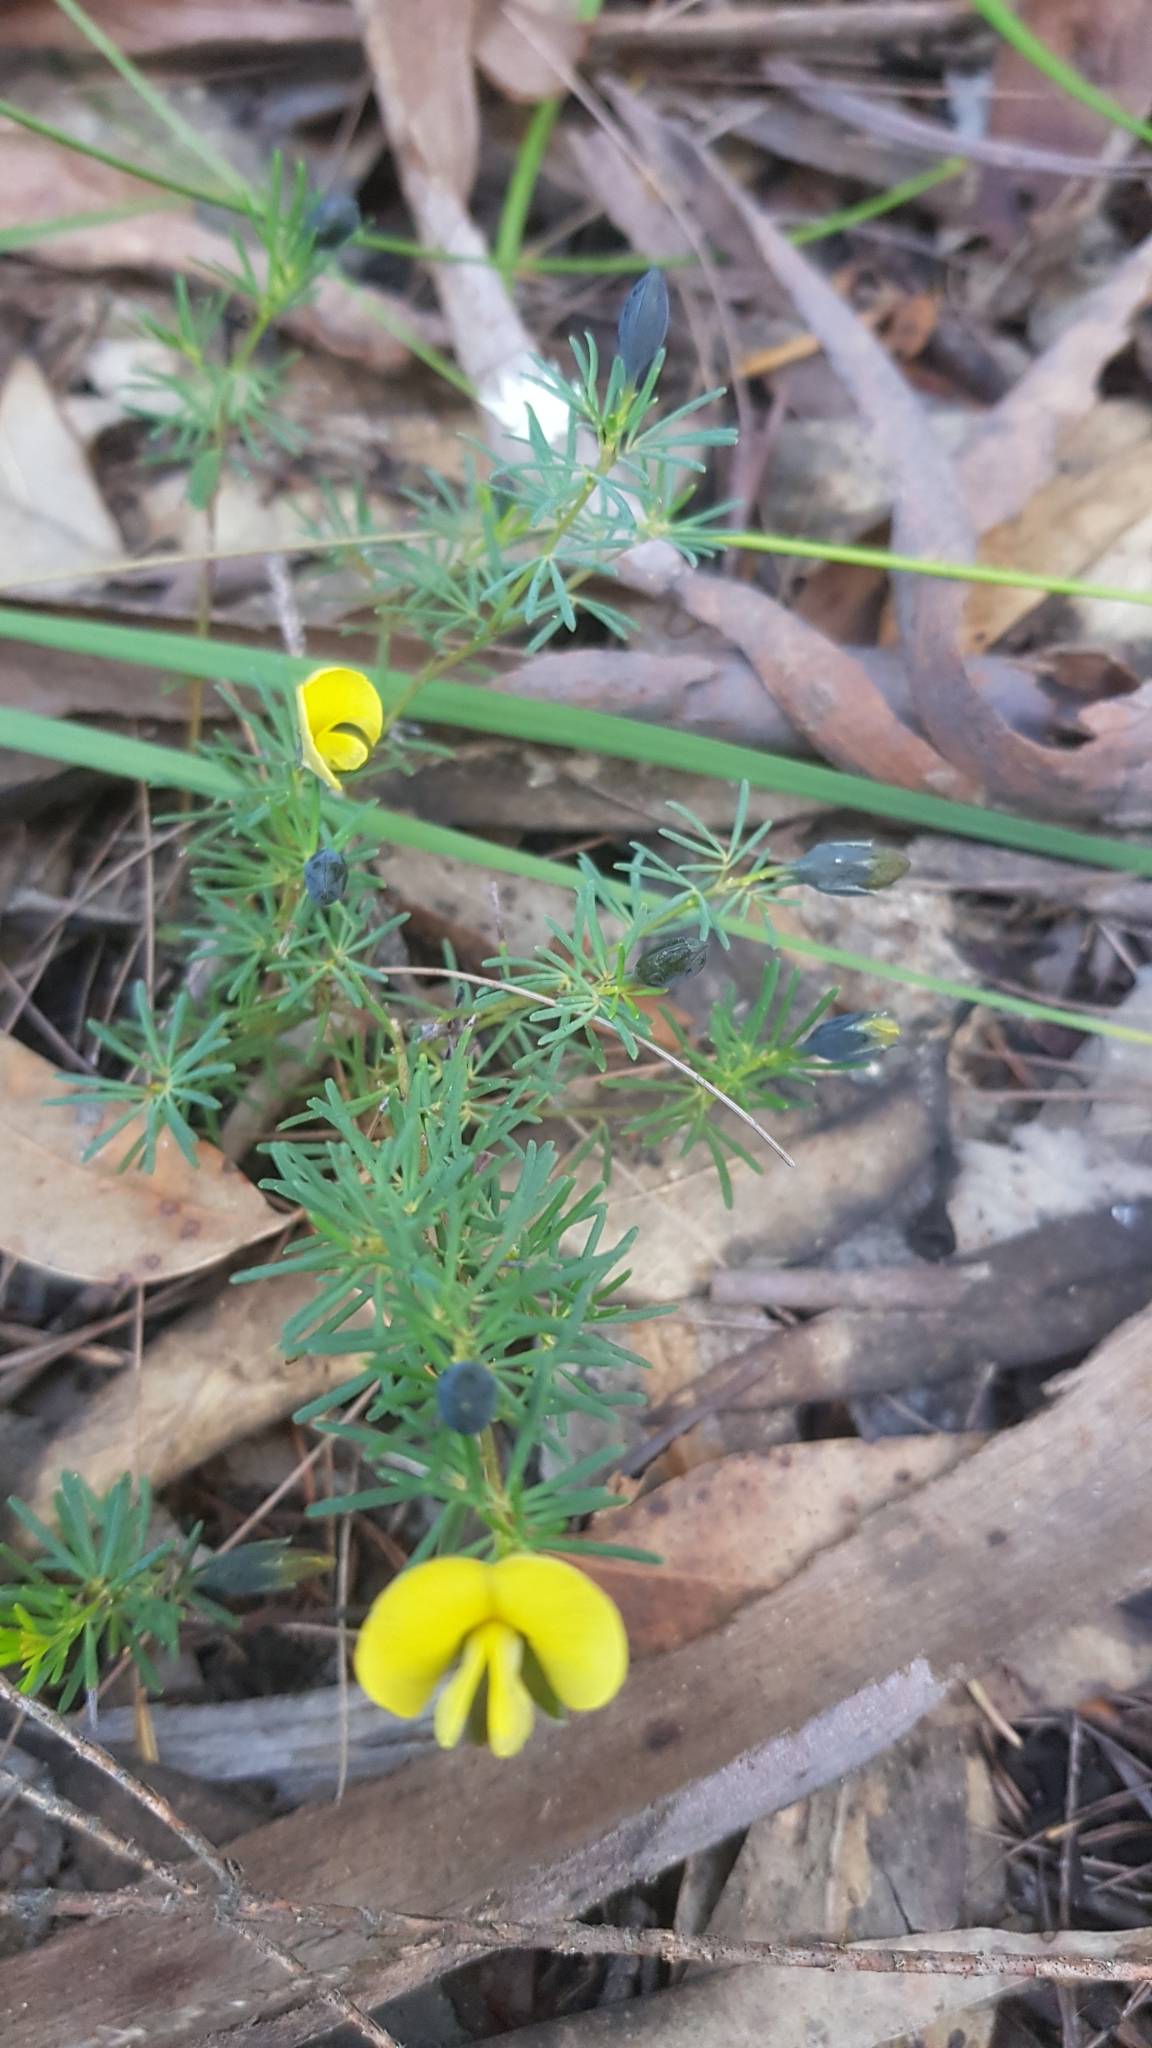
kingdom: Plantae
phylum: Tracheophyta
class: Magnoliopsida
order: Fabales
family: Fabaceae
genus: Gompholobium
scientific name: Gompholobium glabratum
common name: Dainty wedge pea
